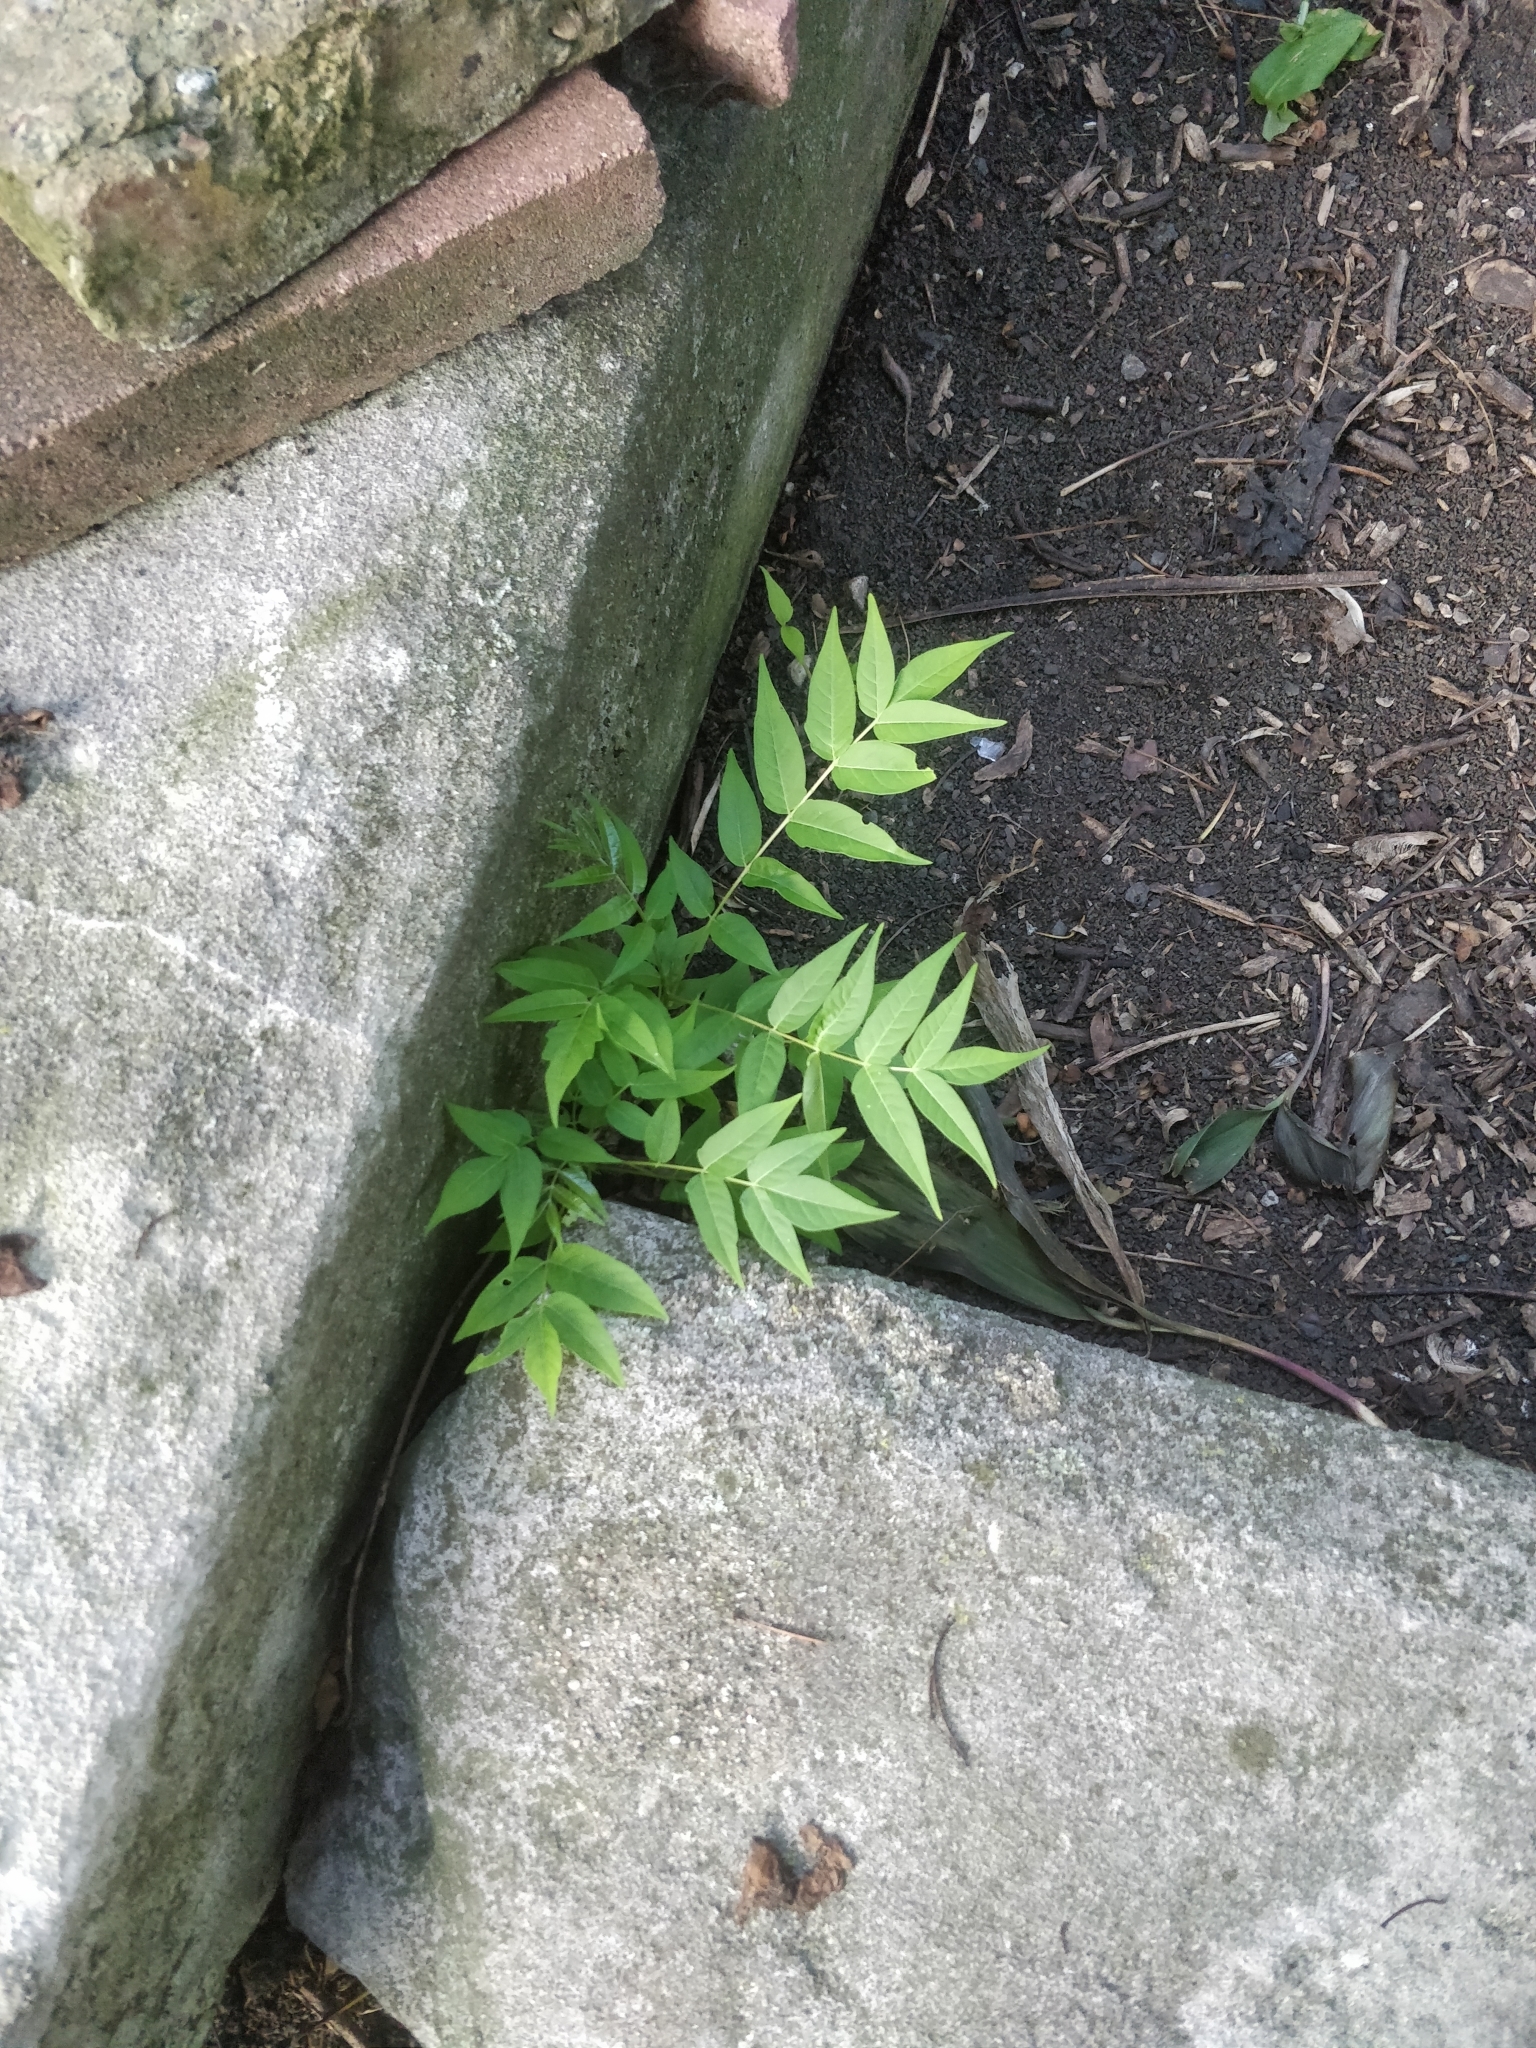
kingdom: Plantae
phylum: Tracheophyta
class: Magnoliopsida
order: Sapindales
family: Simaroubaceae
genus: Ailanthus
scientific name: Ailanthus altissima
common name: Tree-of-heaven
